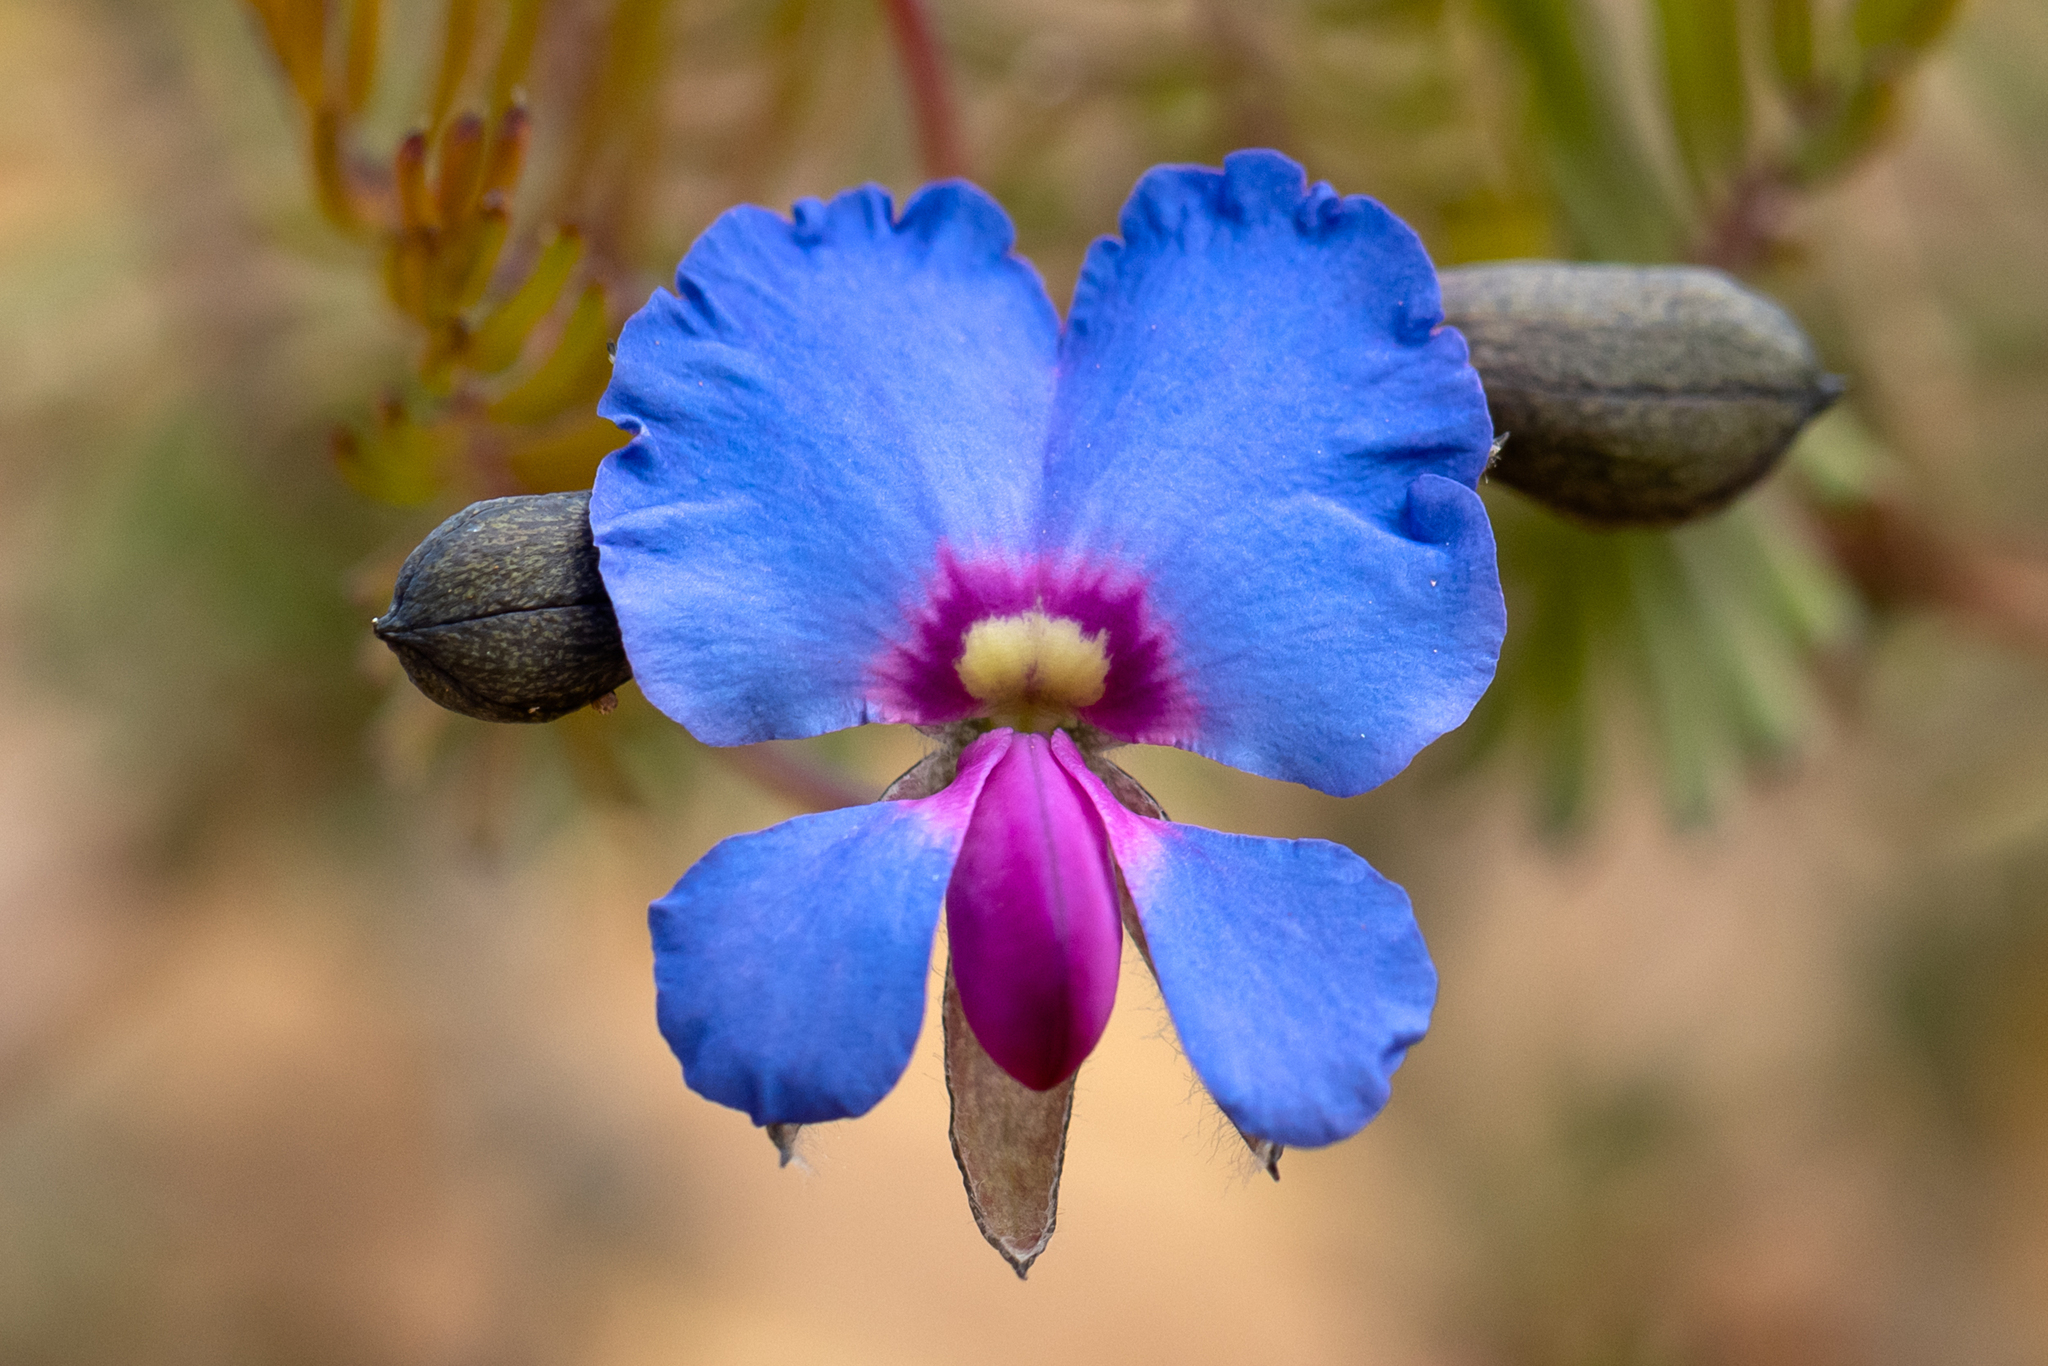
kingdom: Plantae
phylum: Tracheophyta
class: Magnoliopsida
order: Fabales
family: Fabaceae
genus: Gompholobium
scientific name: Gompholobium cyaninum
